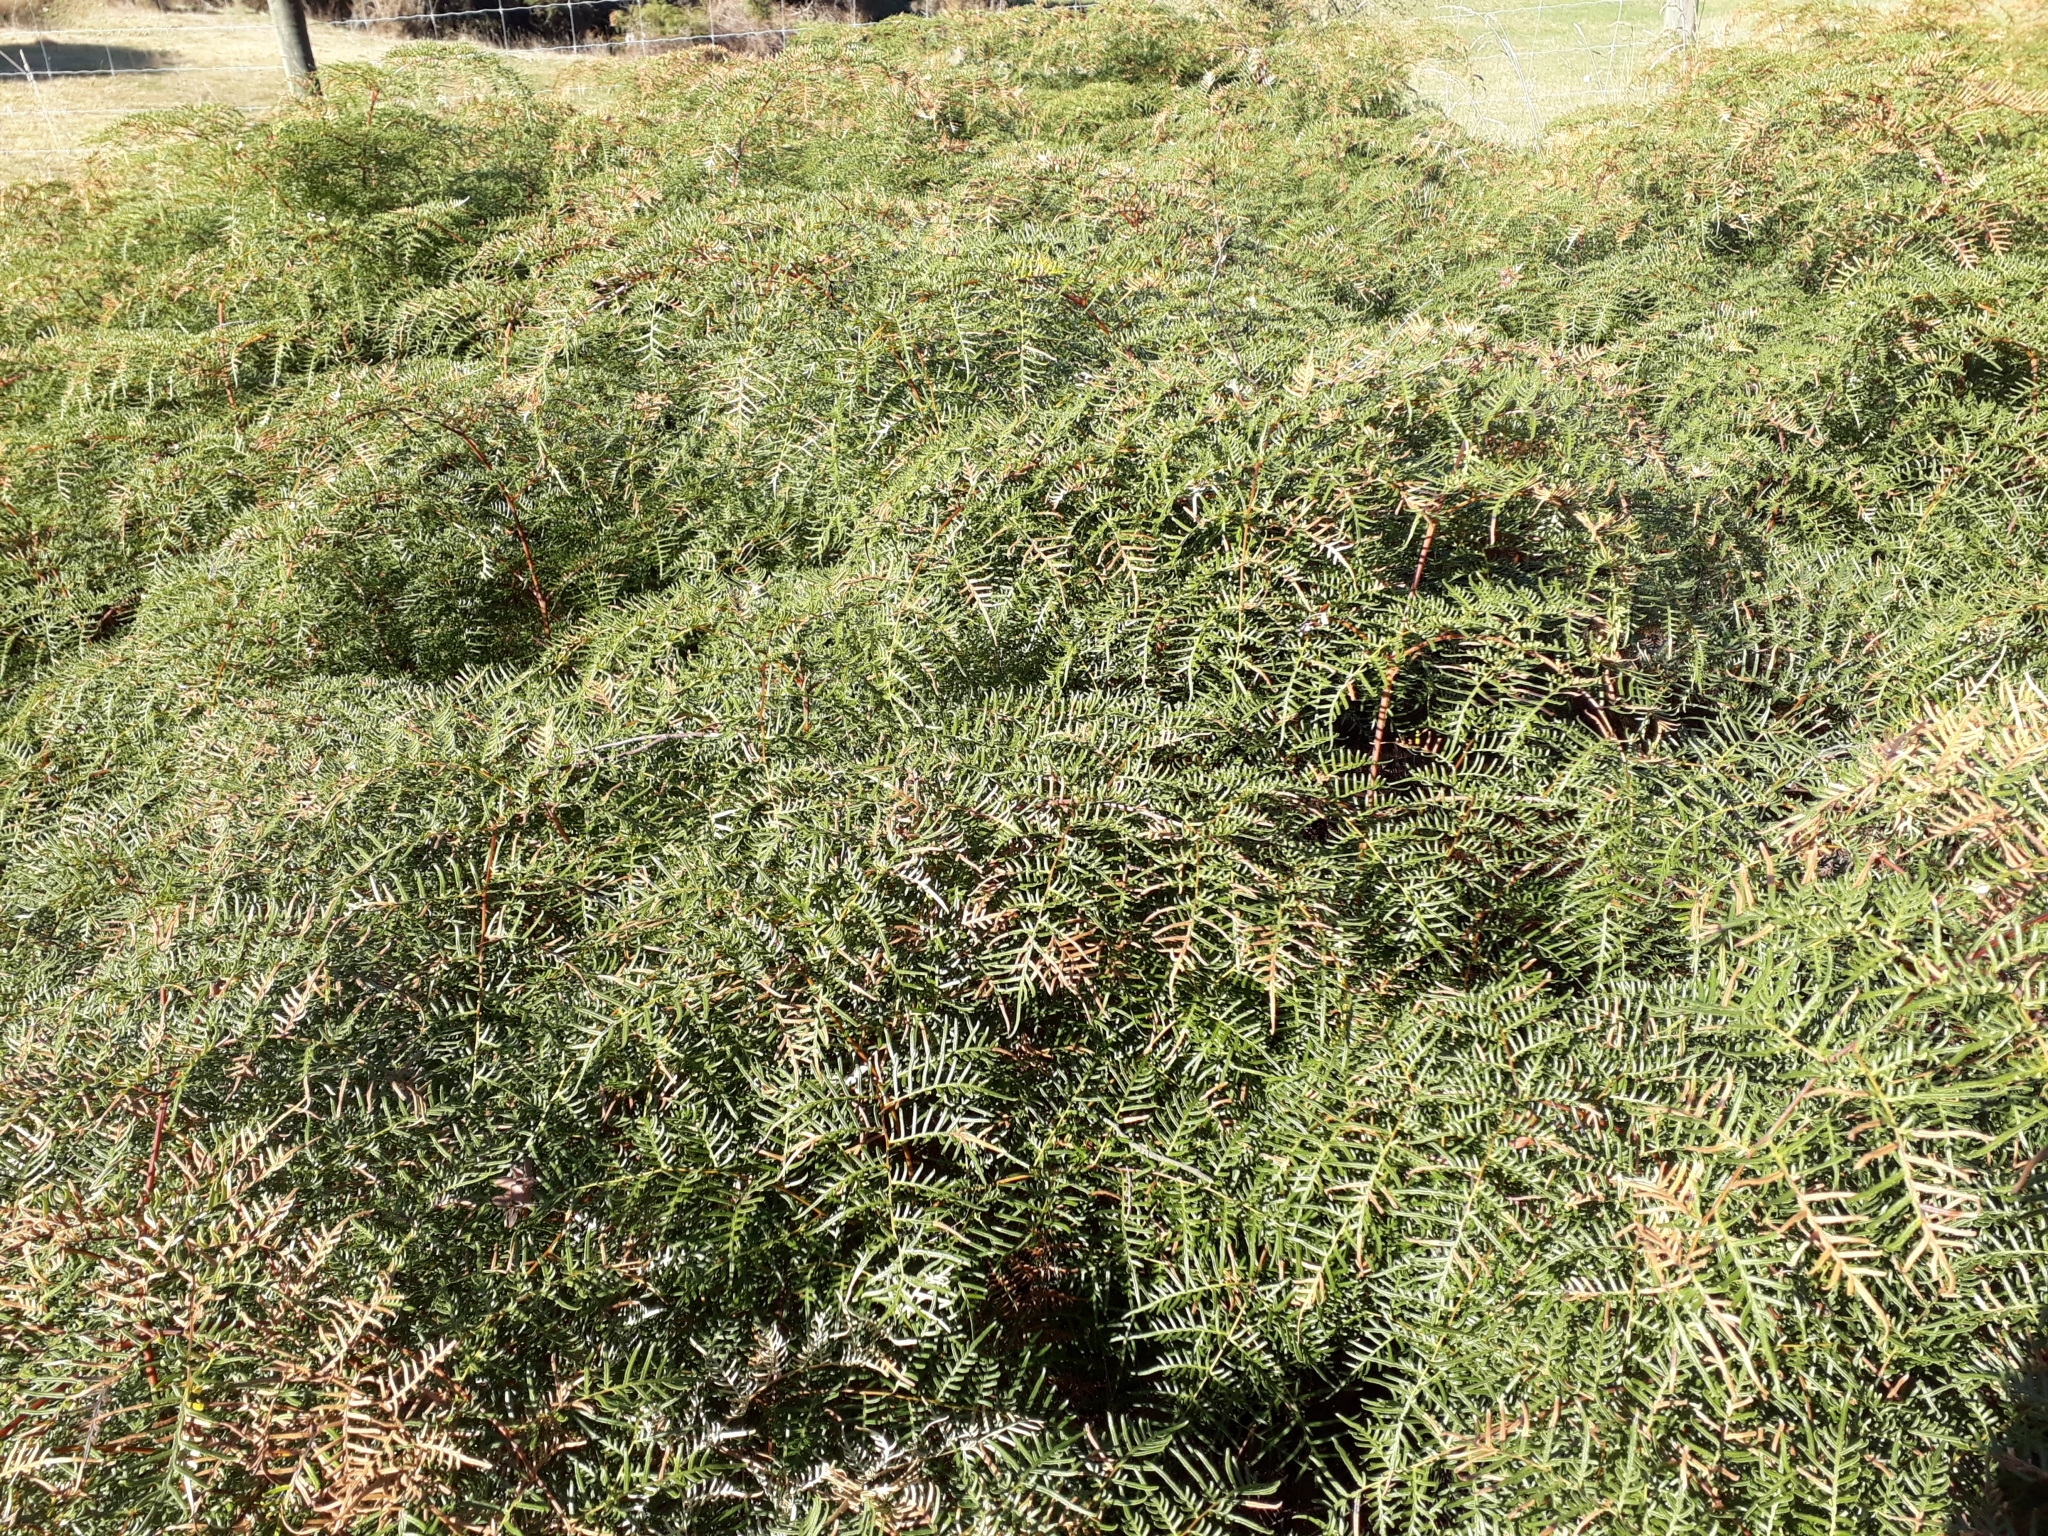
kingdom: Plantae
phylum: Tracheophyta
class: Polypodiopsida
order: Polypodiales
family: Dennstaedtiaceae
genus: Pteridium
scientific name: Pteridium esculentum
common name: Bracken fern
